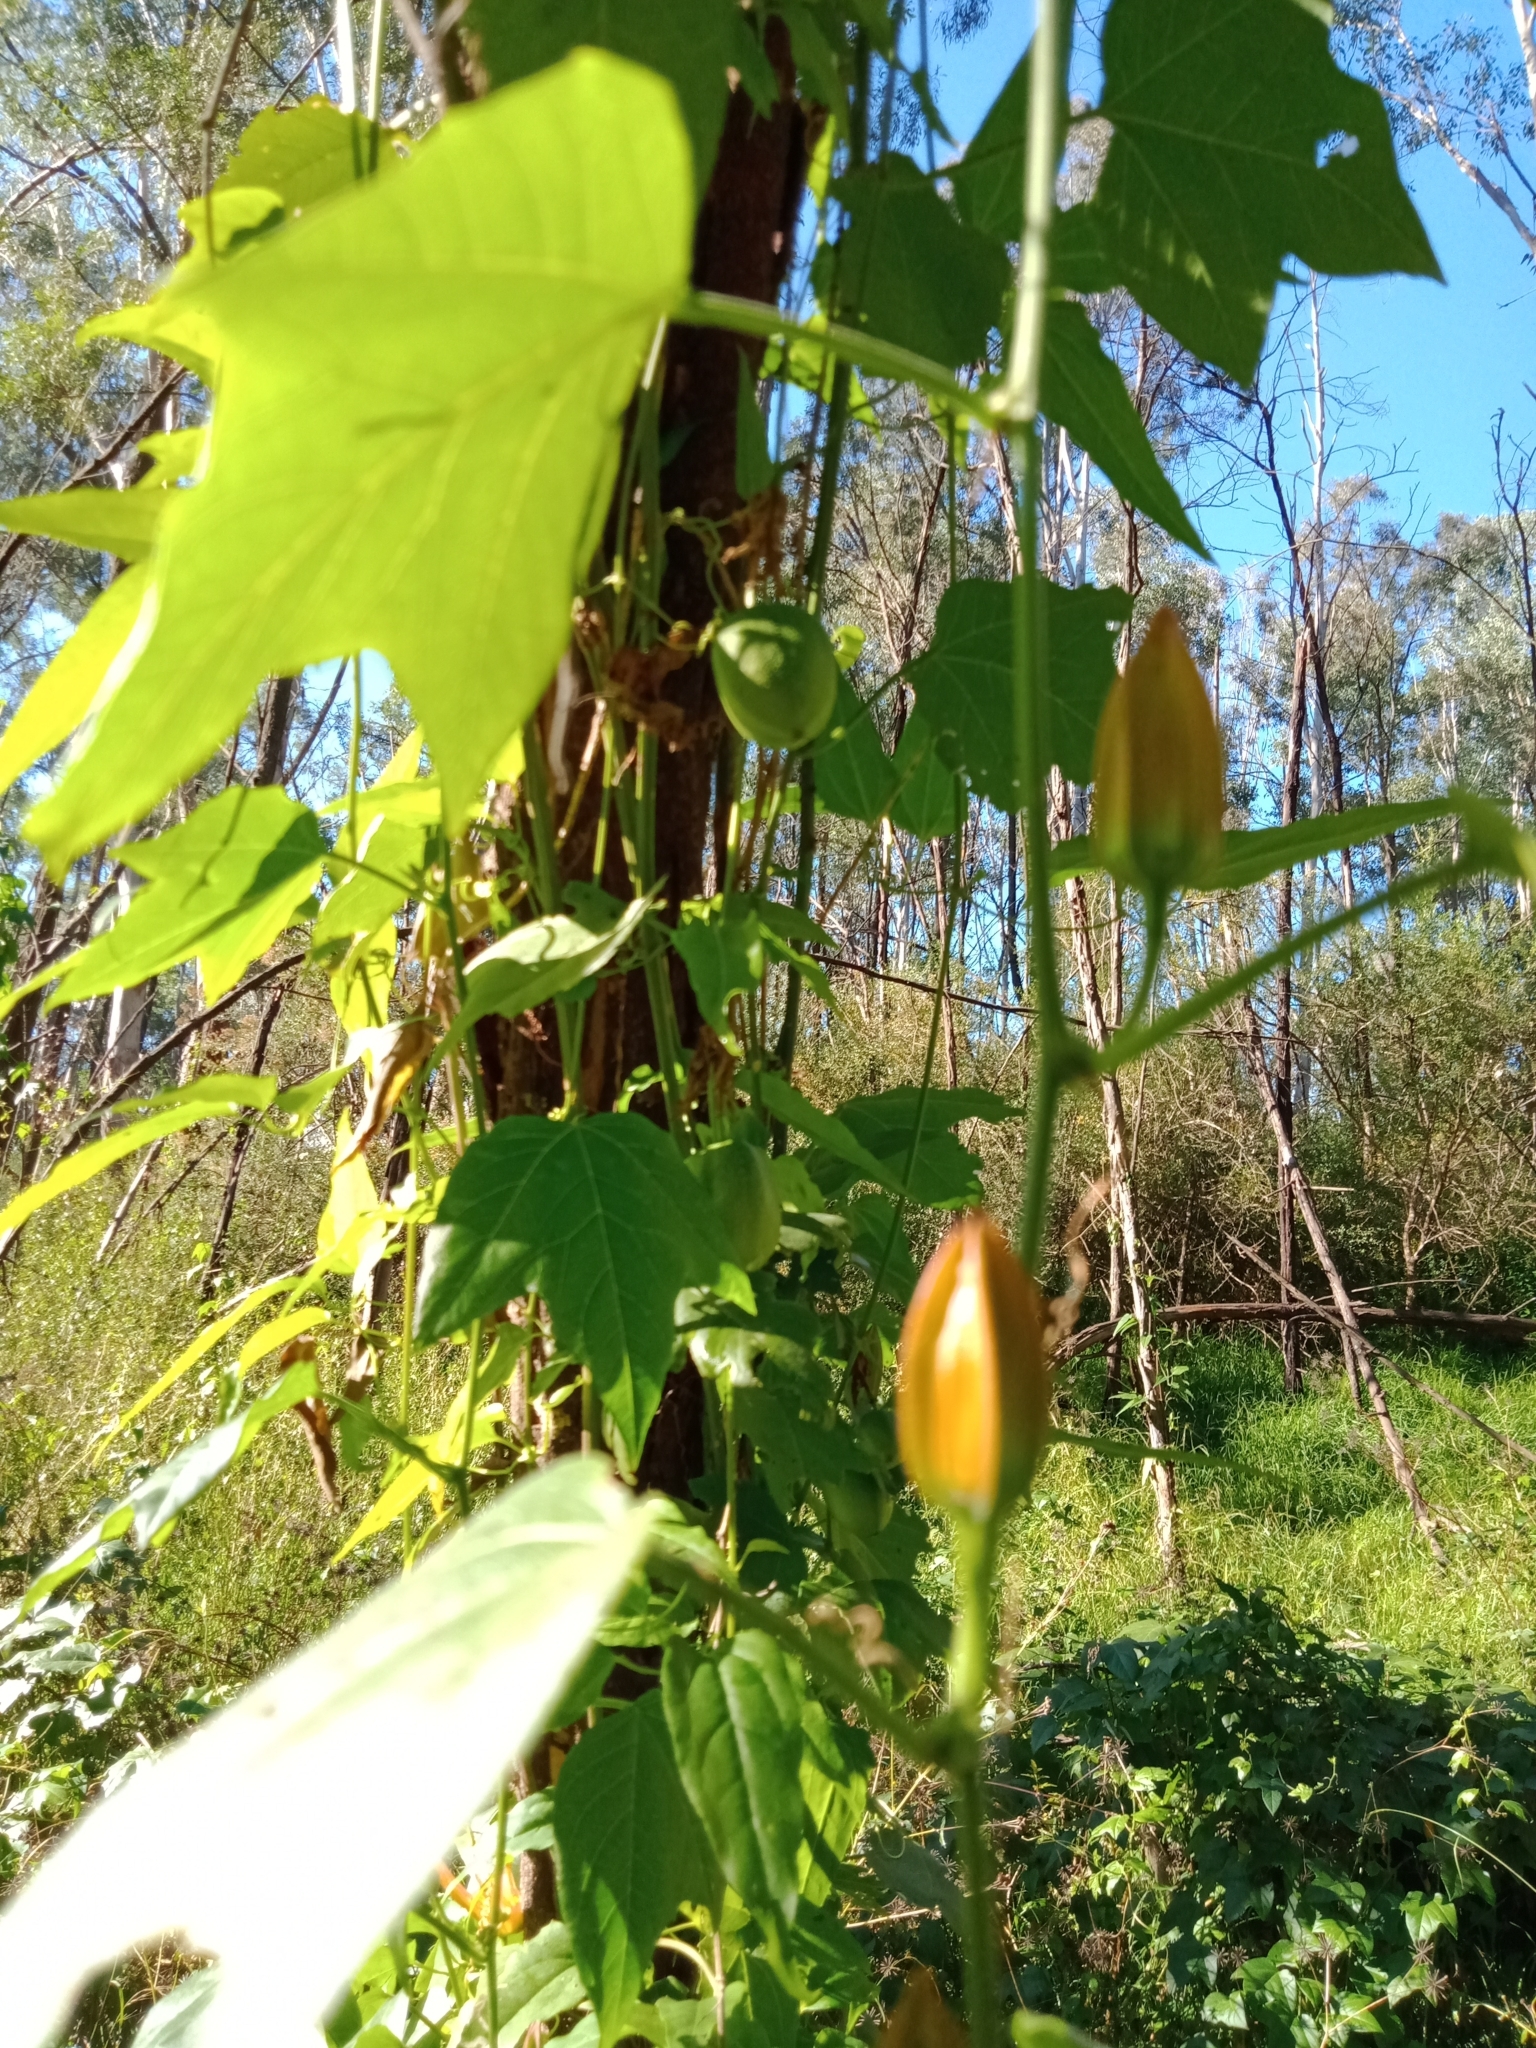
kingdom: Plantae
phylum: Tracheophyta
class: Magnoliopsida
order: Malpighiales
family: Passifloraceae
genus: Passiflora
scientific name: Passiflora herbertiana
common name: Yellow passionflower
